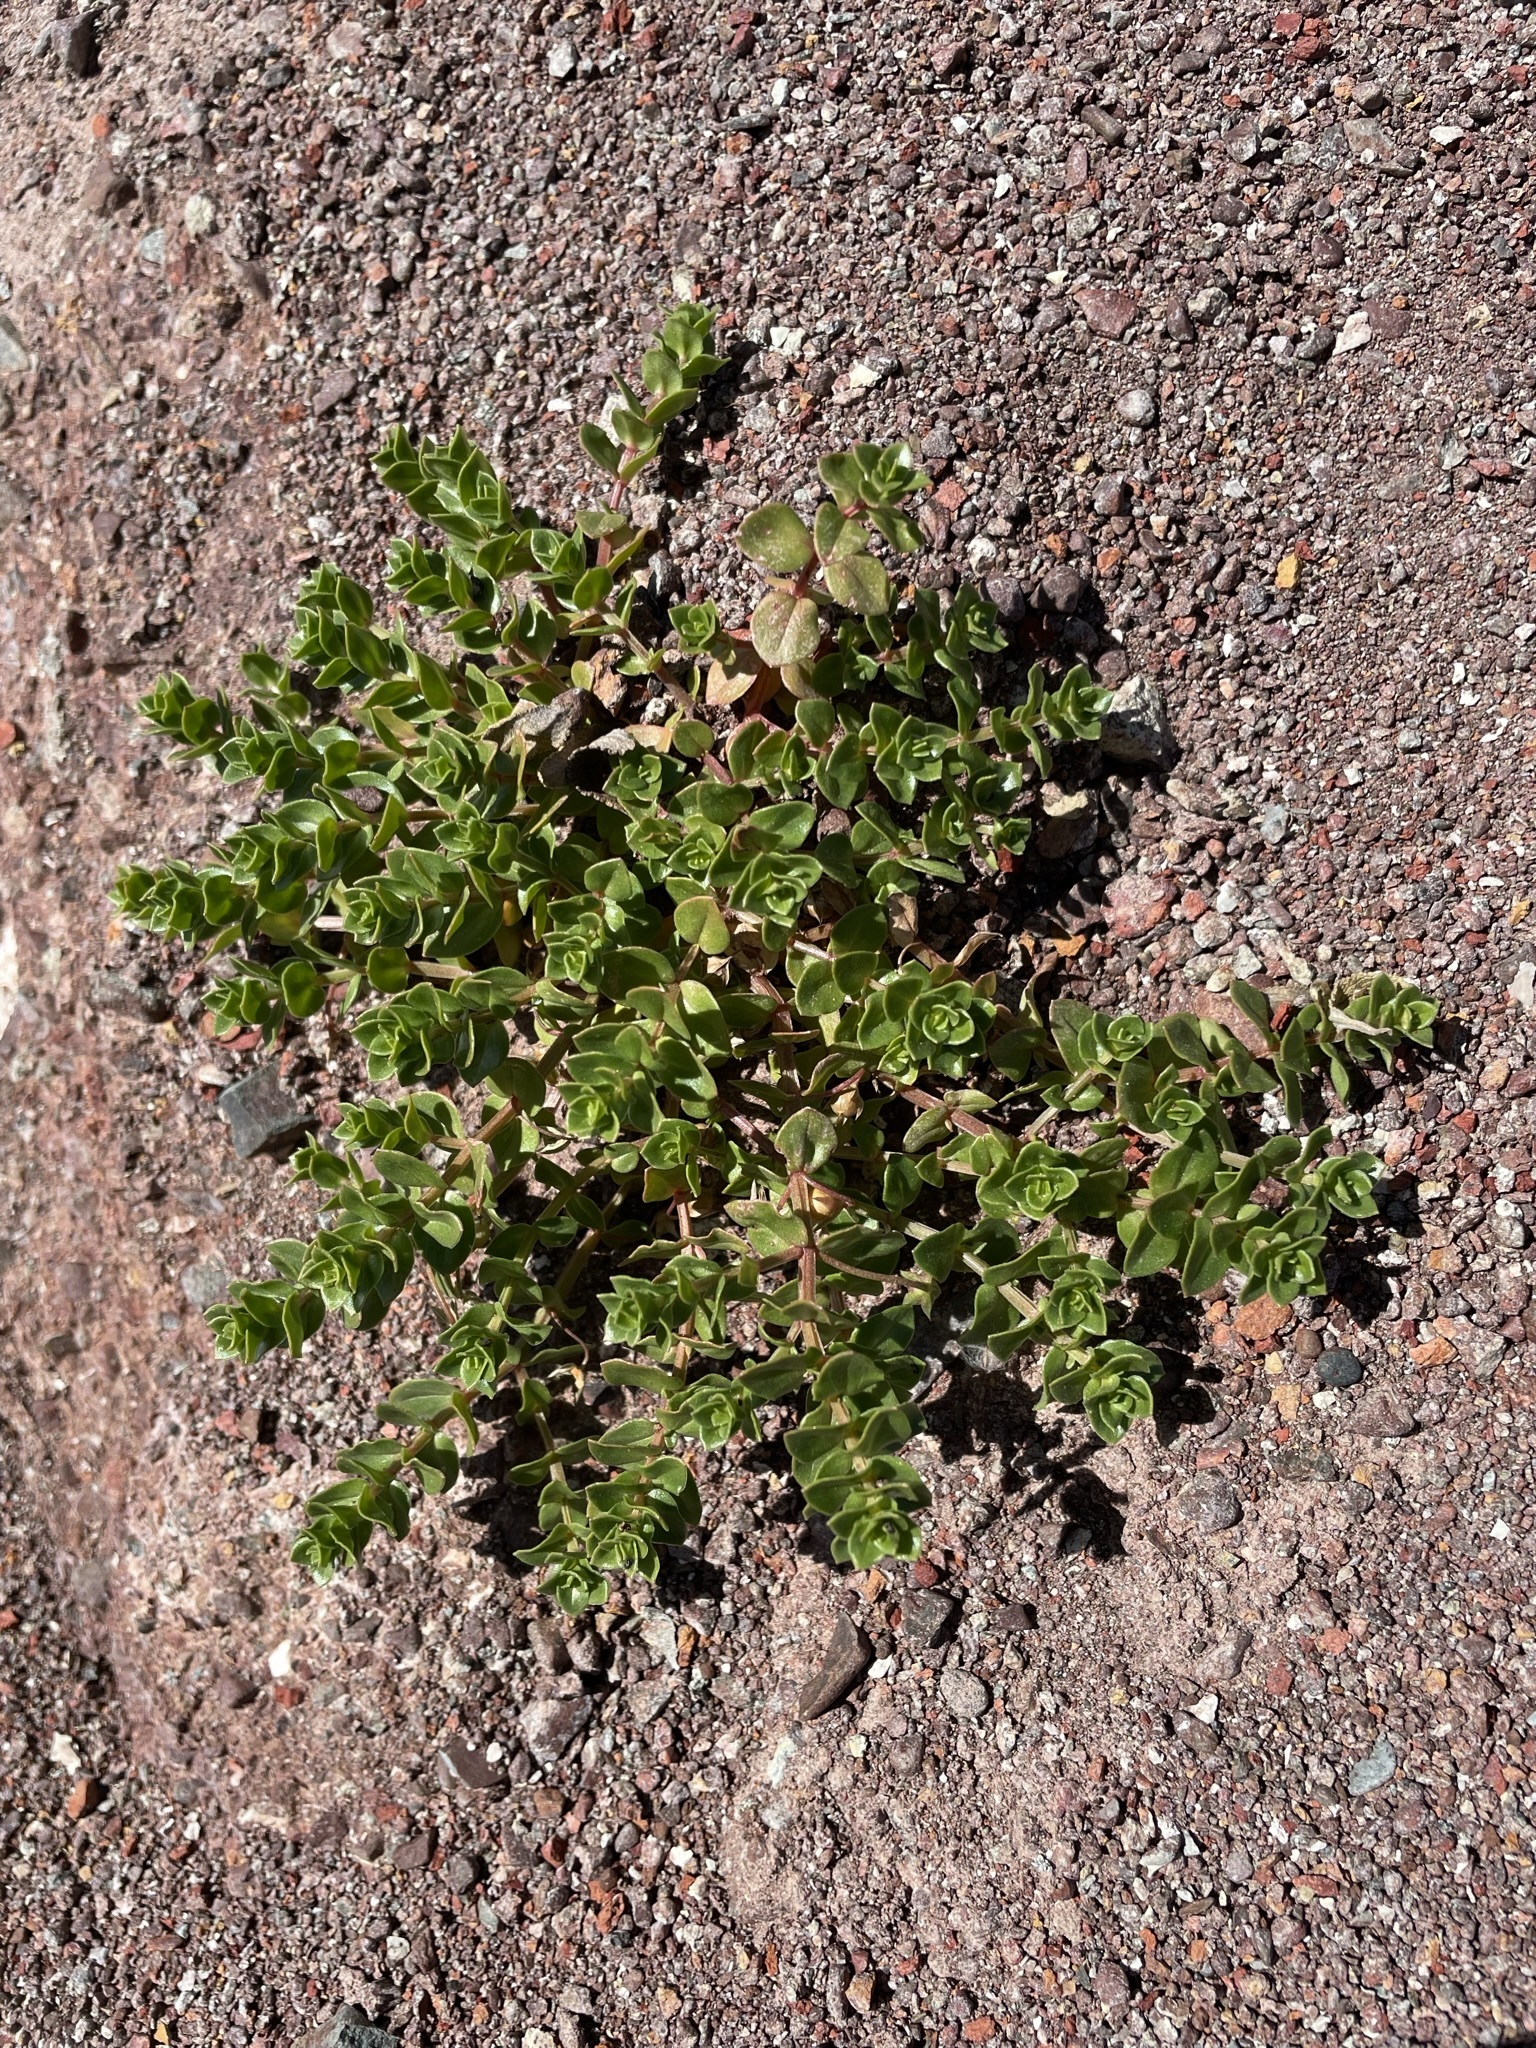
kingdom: Plantae
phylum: Tracheophyta
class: Magnoliopsida
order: Ericales
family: Primulaceae
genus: Lysimachia
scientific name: Lysimachia arvensis
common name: Scarlet pimpernel
